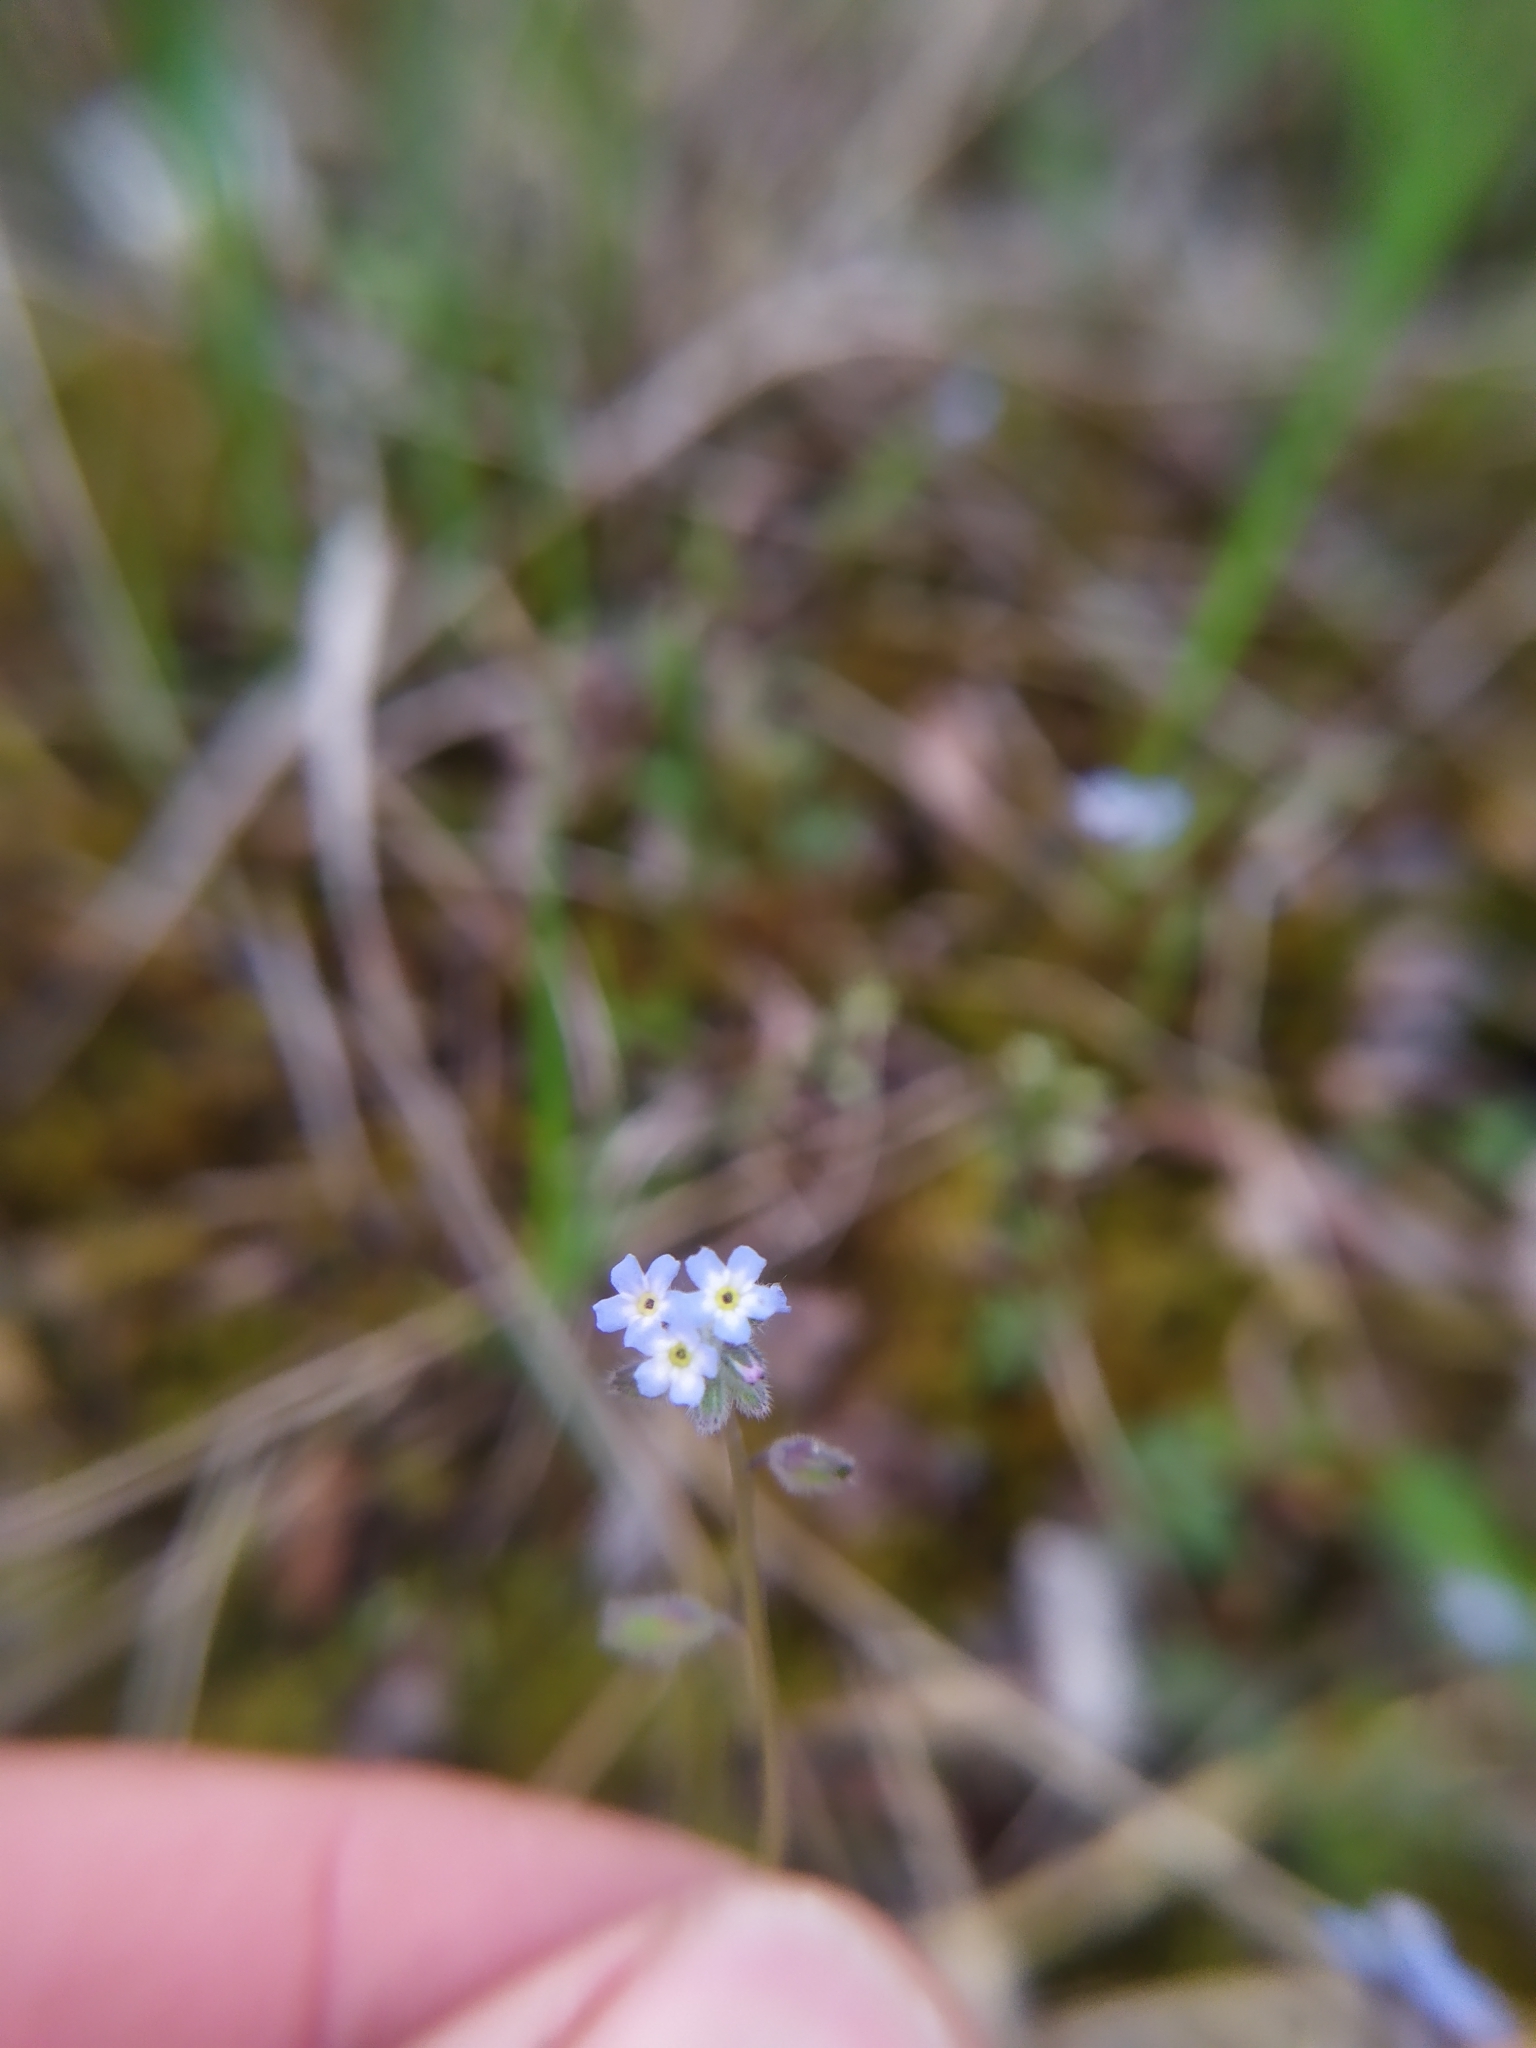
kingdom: Plantae
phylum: Tracheophyta
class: Magnoliopsida
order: Boraginales
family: Boraginaceae
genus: Myosotis
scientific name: Myosotis ramosissima
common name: Early forget-me-not
